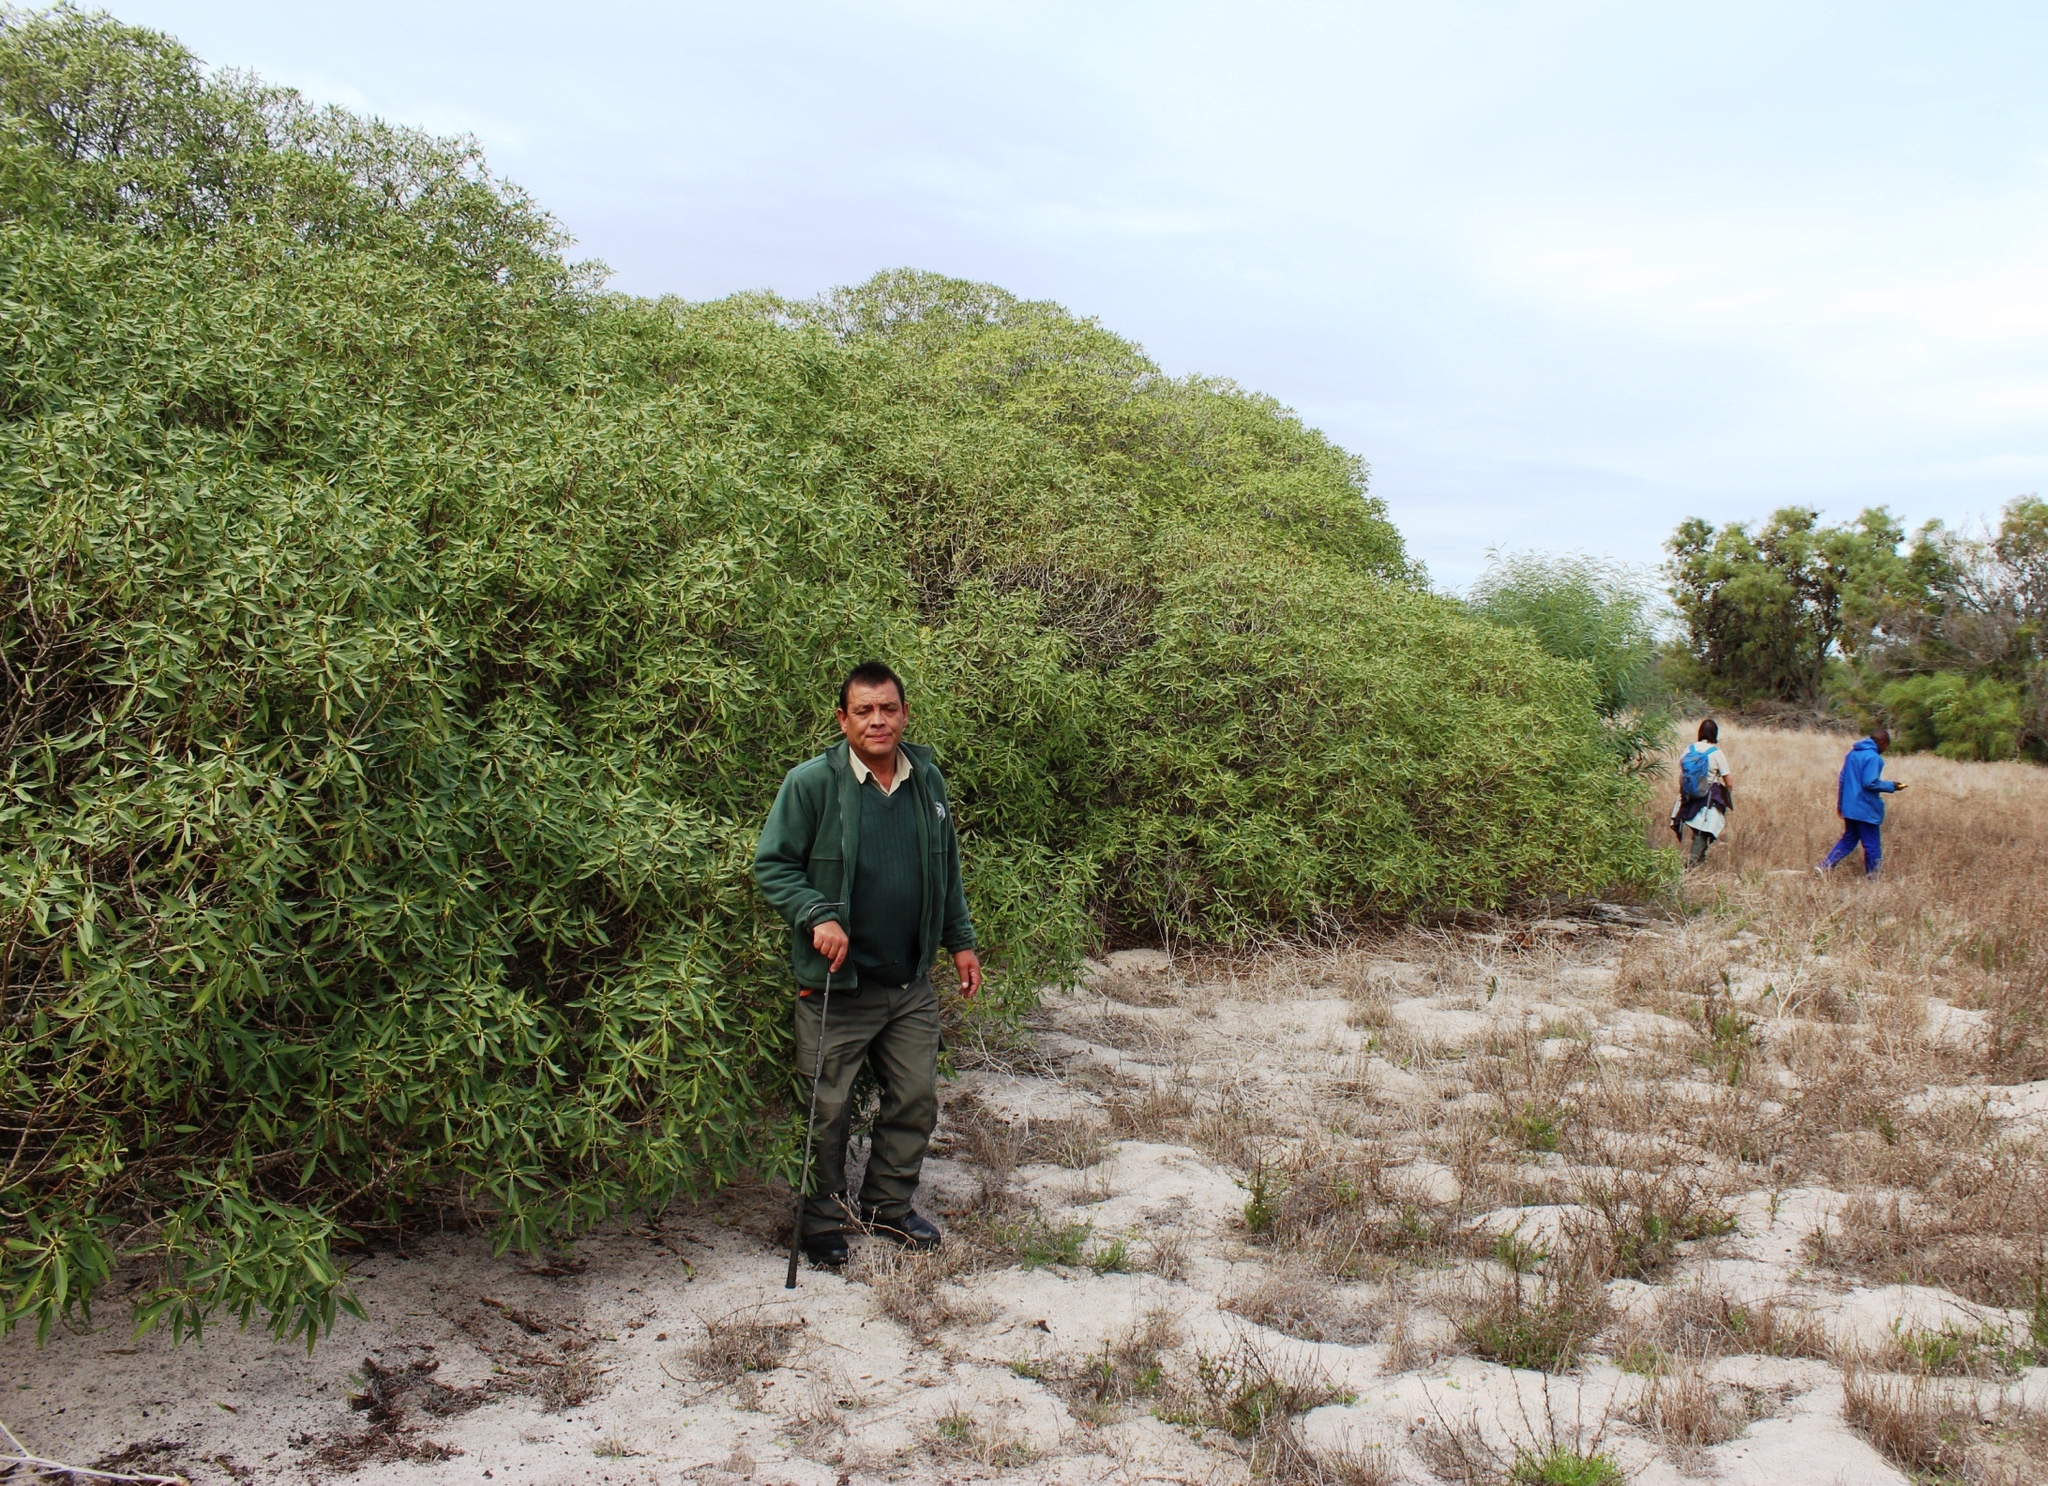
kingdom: Plantae
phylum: Tracheophyta
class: Magnoliopsida
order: Lamiales
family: Scrophulariaceae
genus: Myoporum
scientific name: Myoporum montanum
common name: Waterbush
